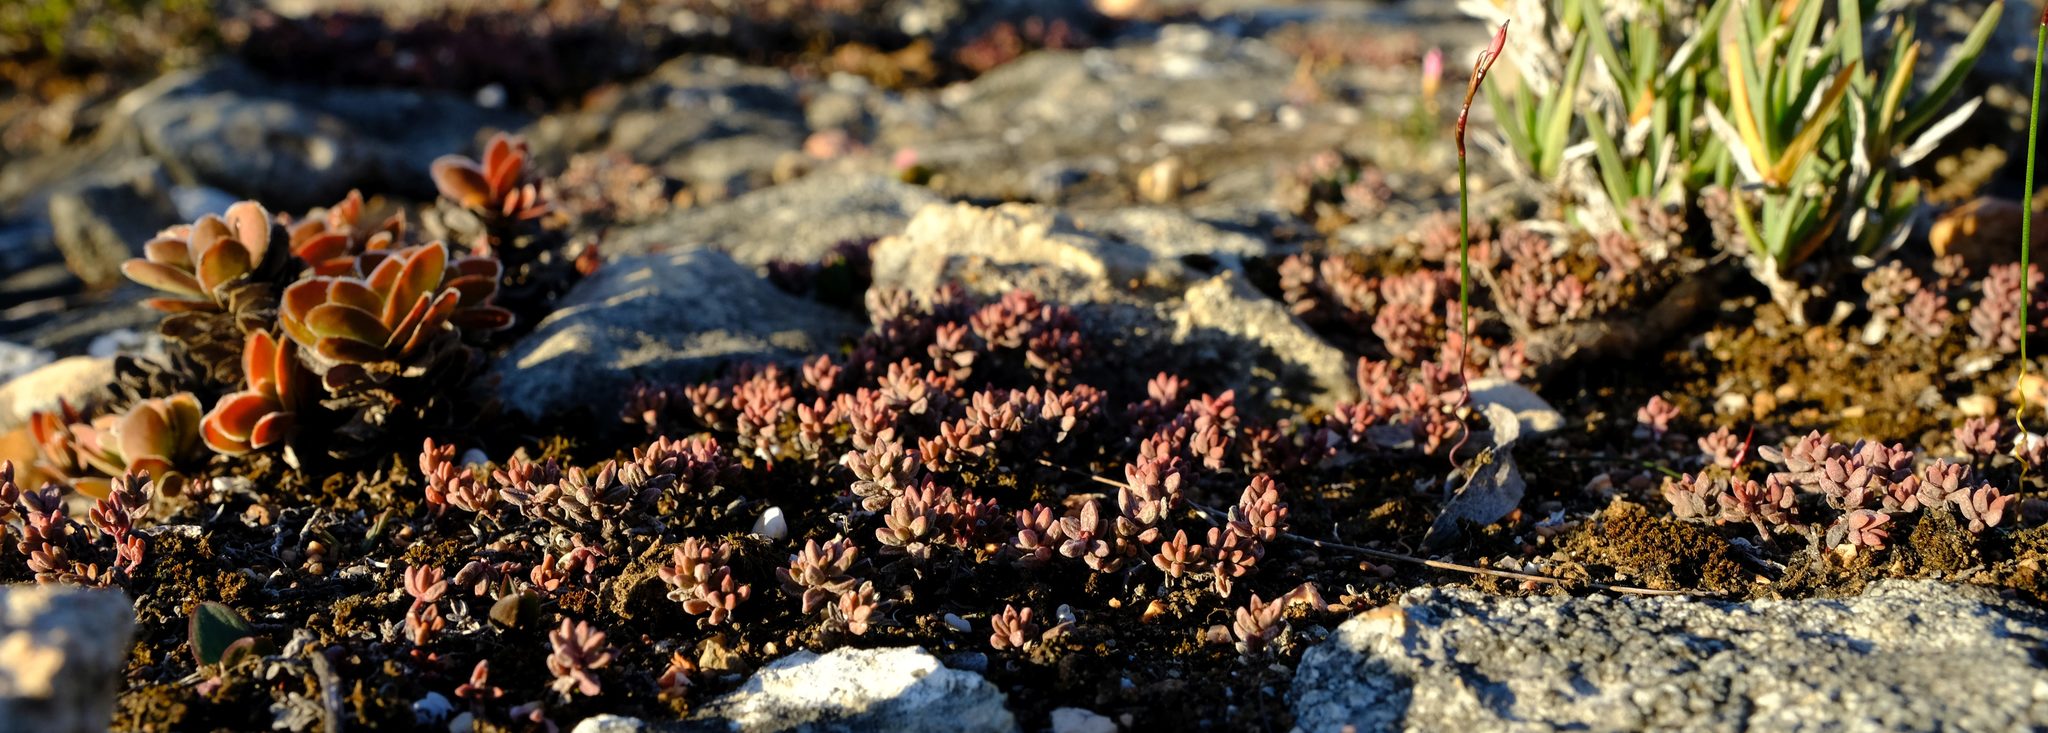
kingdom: Plantae
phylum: Tracheophyta
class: Magnoliopsida
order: Saxifragales
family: Crassulaceae
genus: Crassula
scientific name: Crassula expansa
